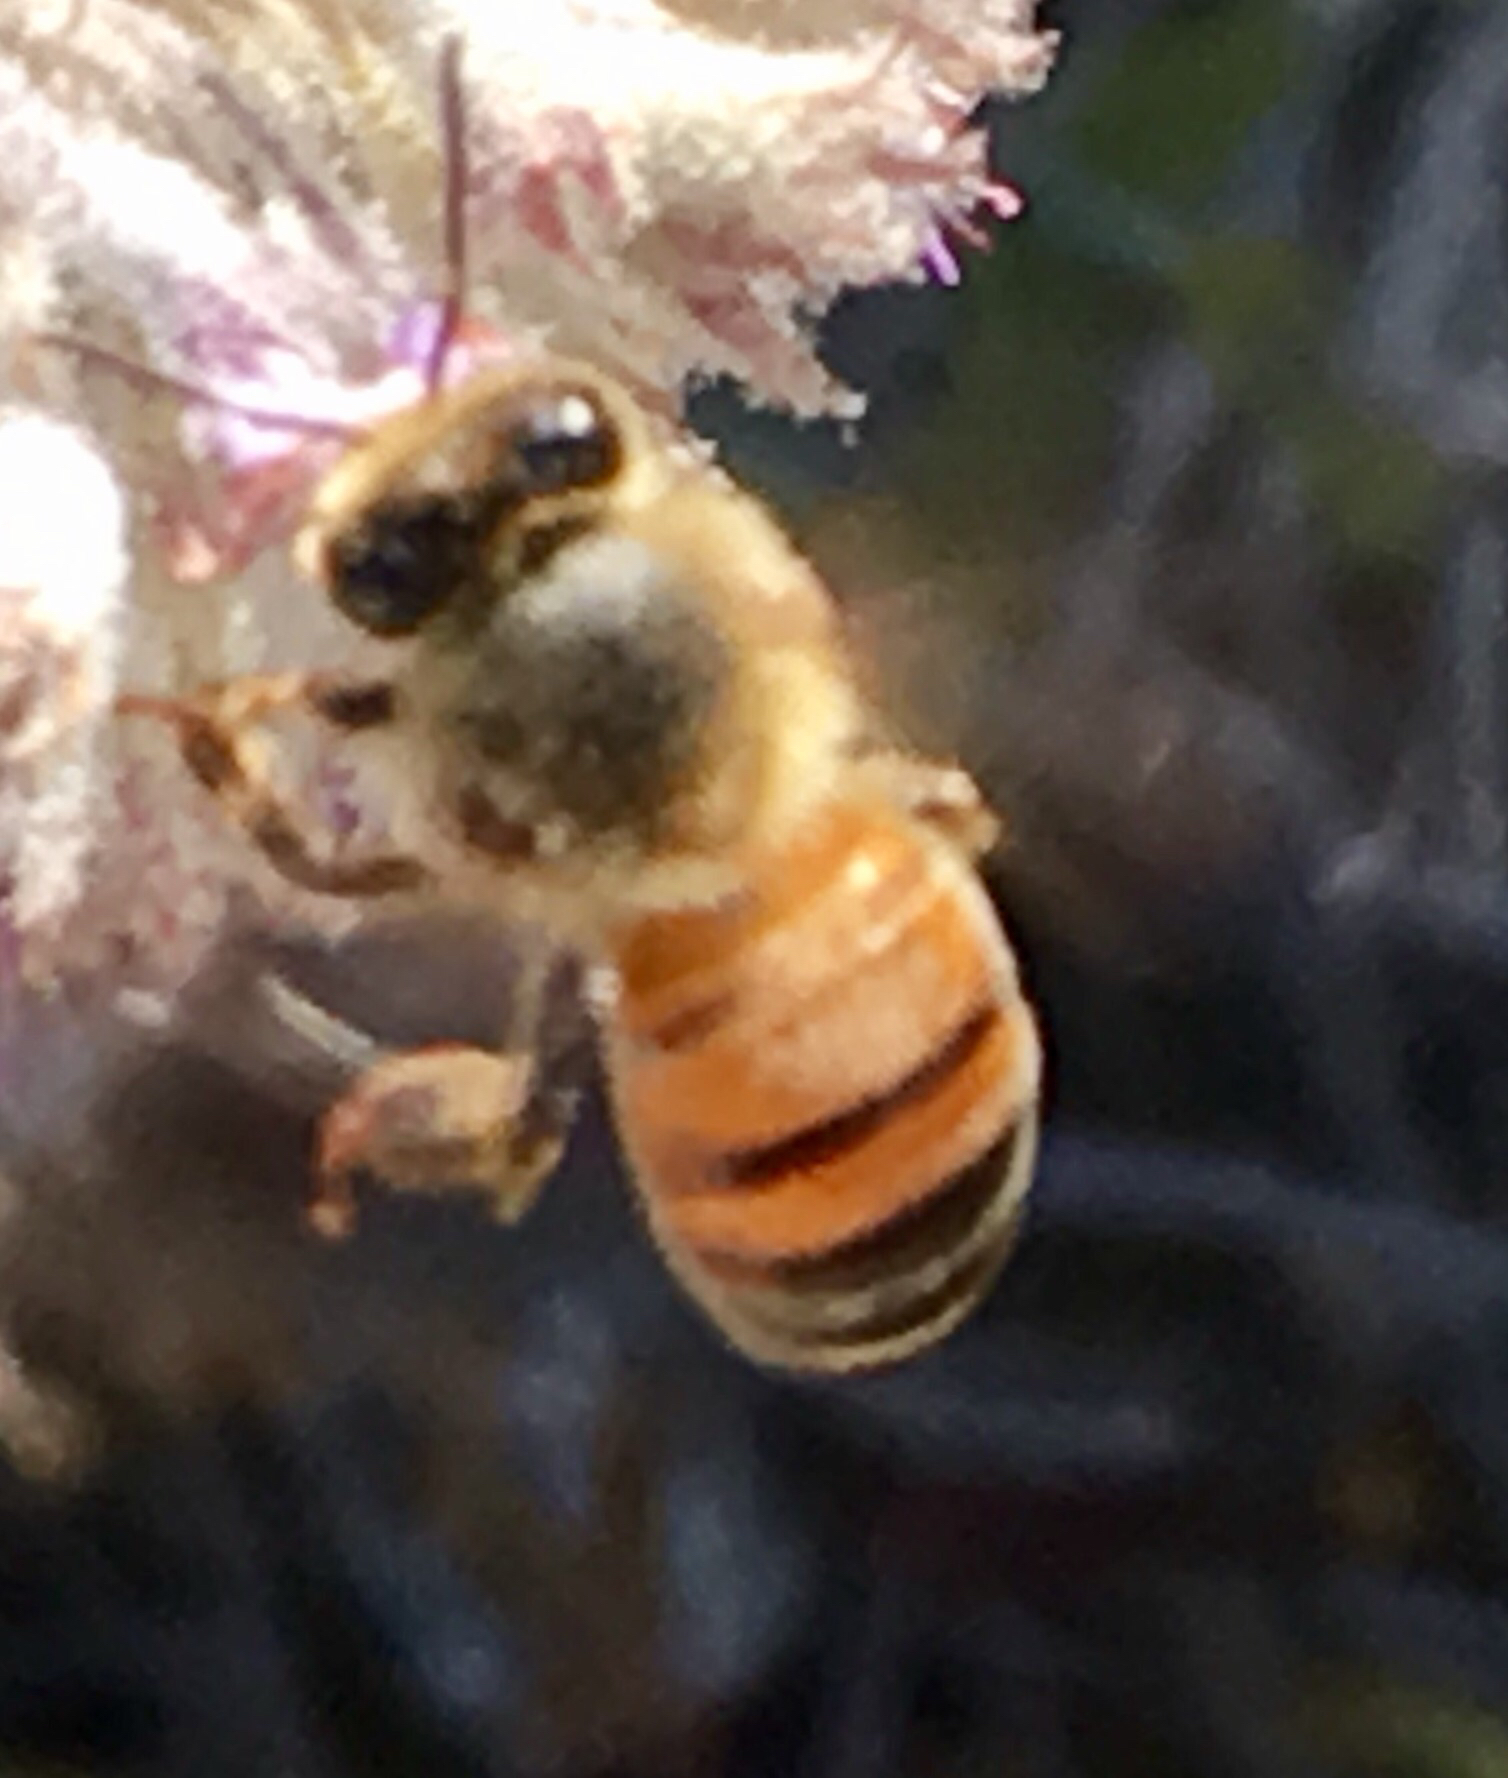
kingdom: Animalia
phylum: Arthropoda
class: Insecta
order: Hymenoptera
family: Apidae
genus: Apis
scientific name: Apis mellifera
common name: Honey bee
